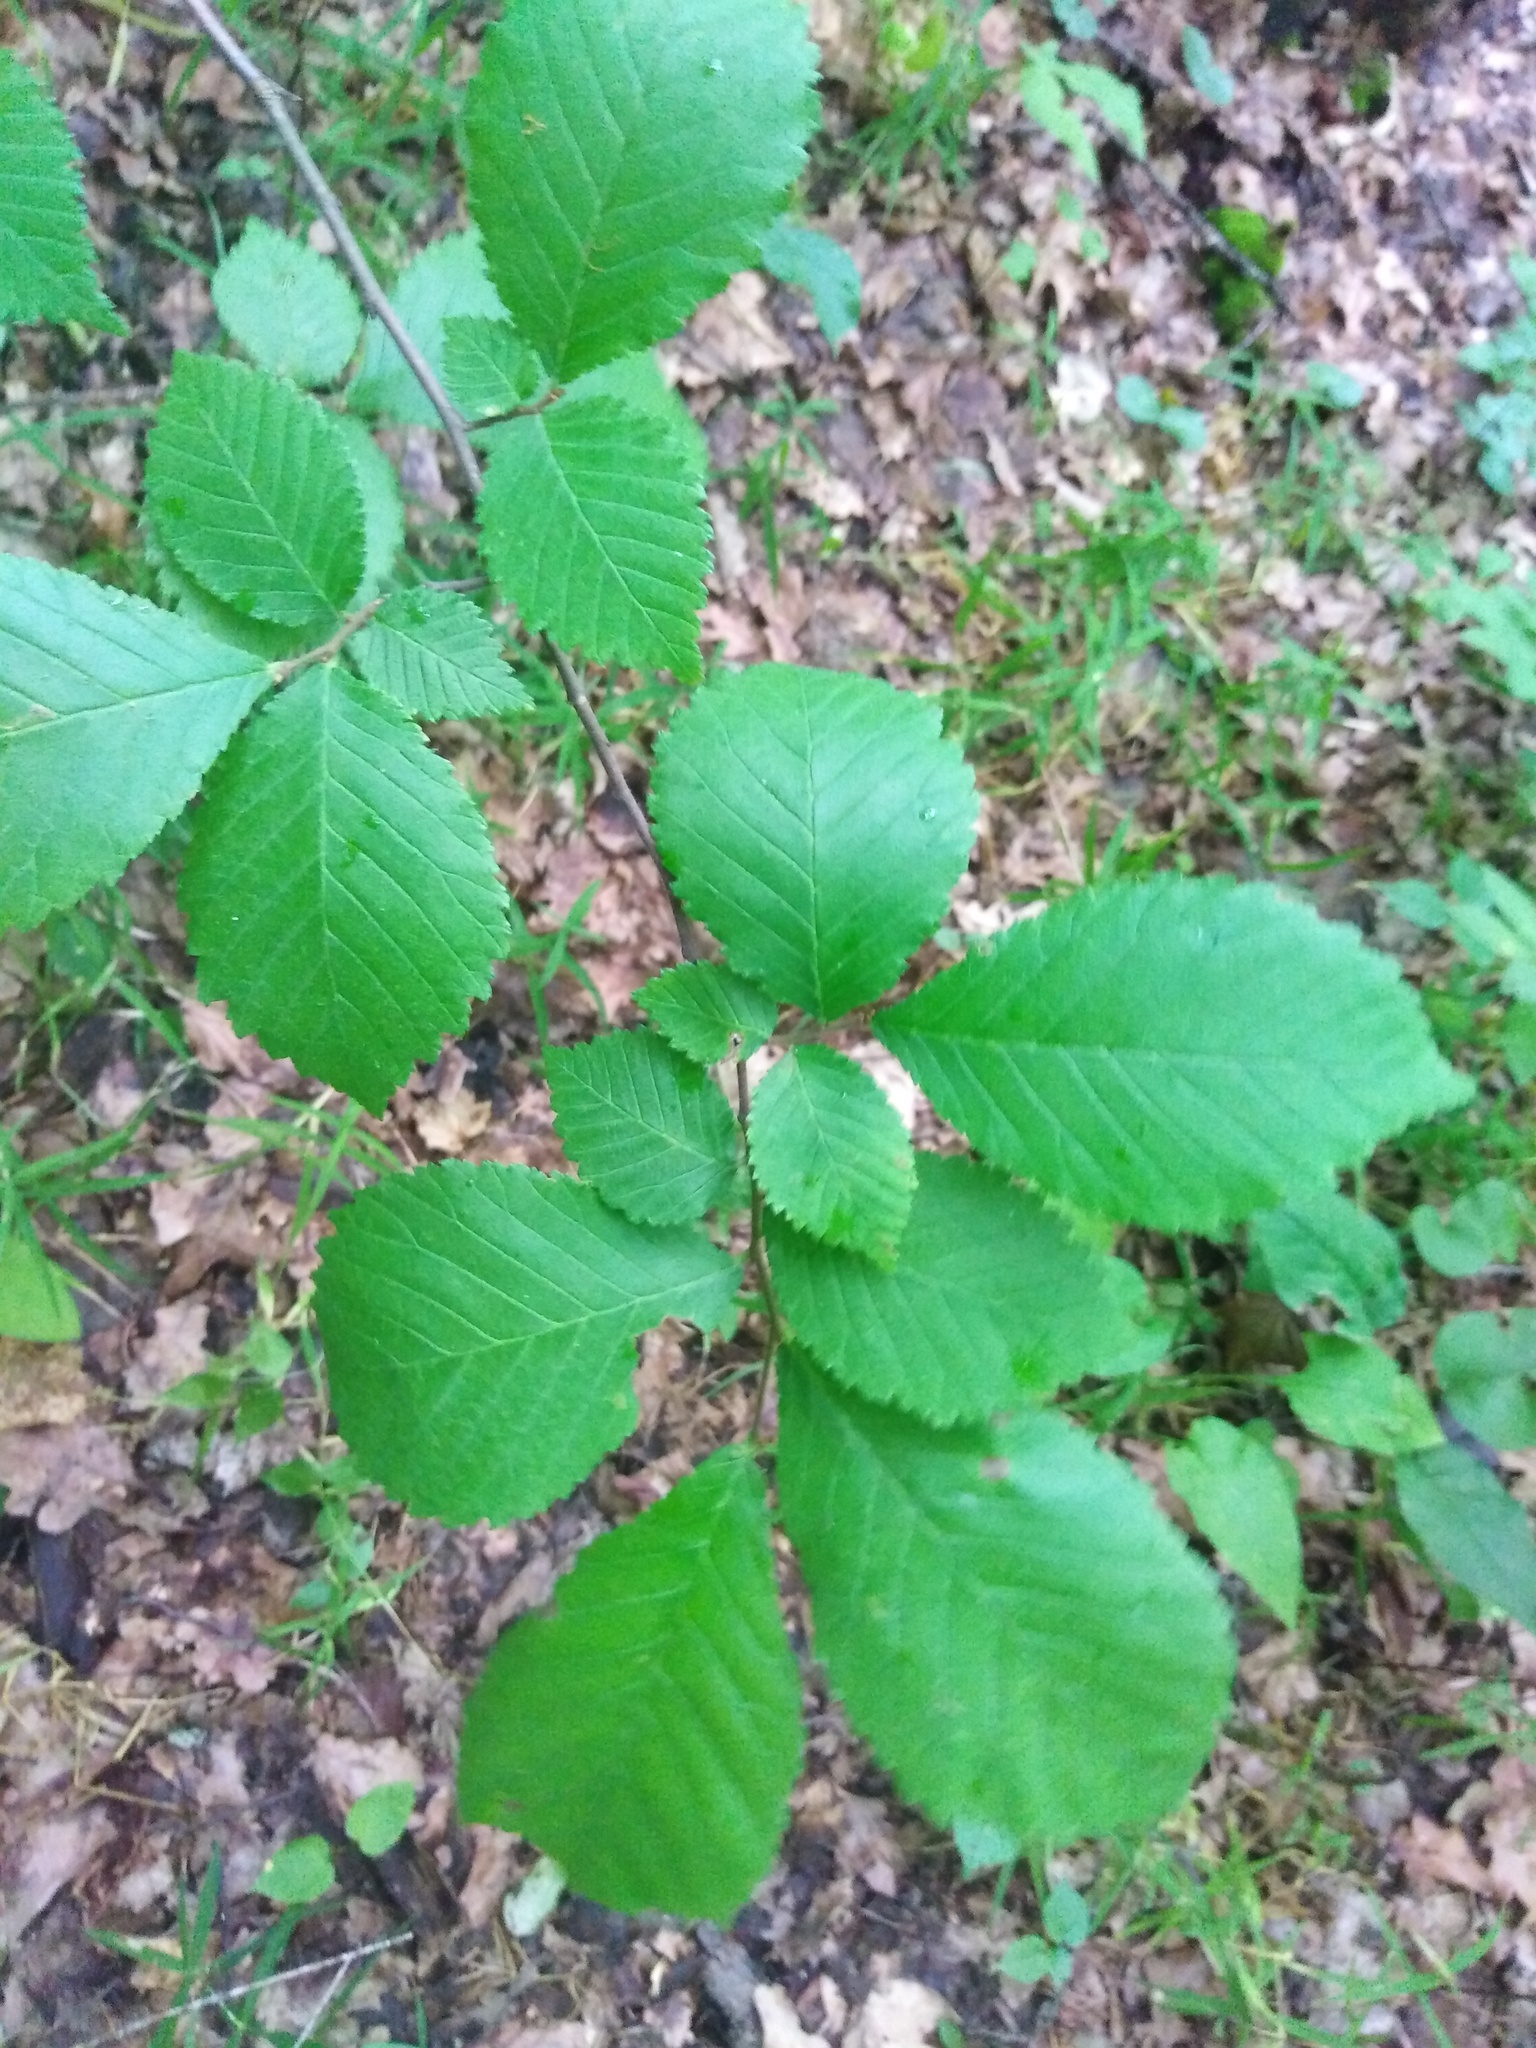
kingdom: Plantae
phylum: Tracheophyta
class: Magnoliopsida
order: Rosales
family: Ulmaceae
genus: Ulmus
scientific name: Ulmus glabra
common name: Wych elm
